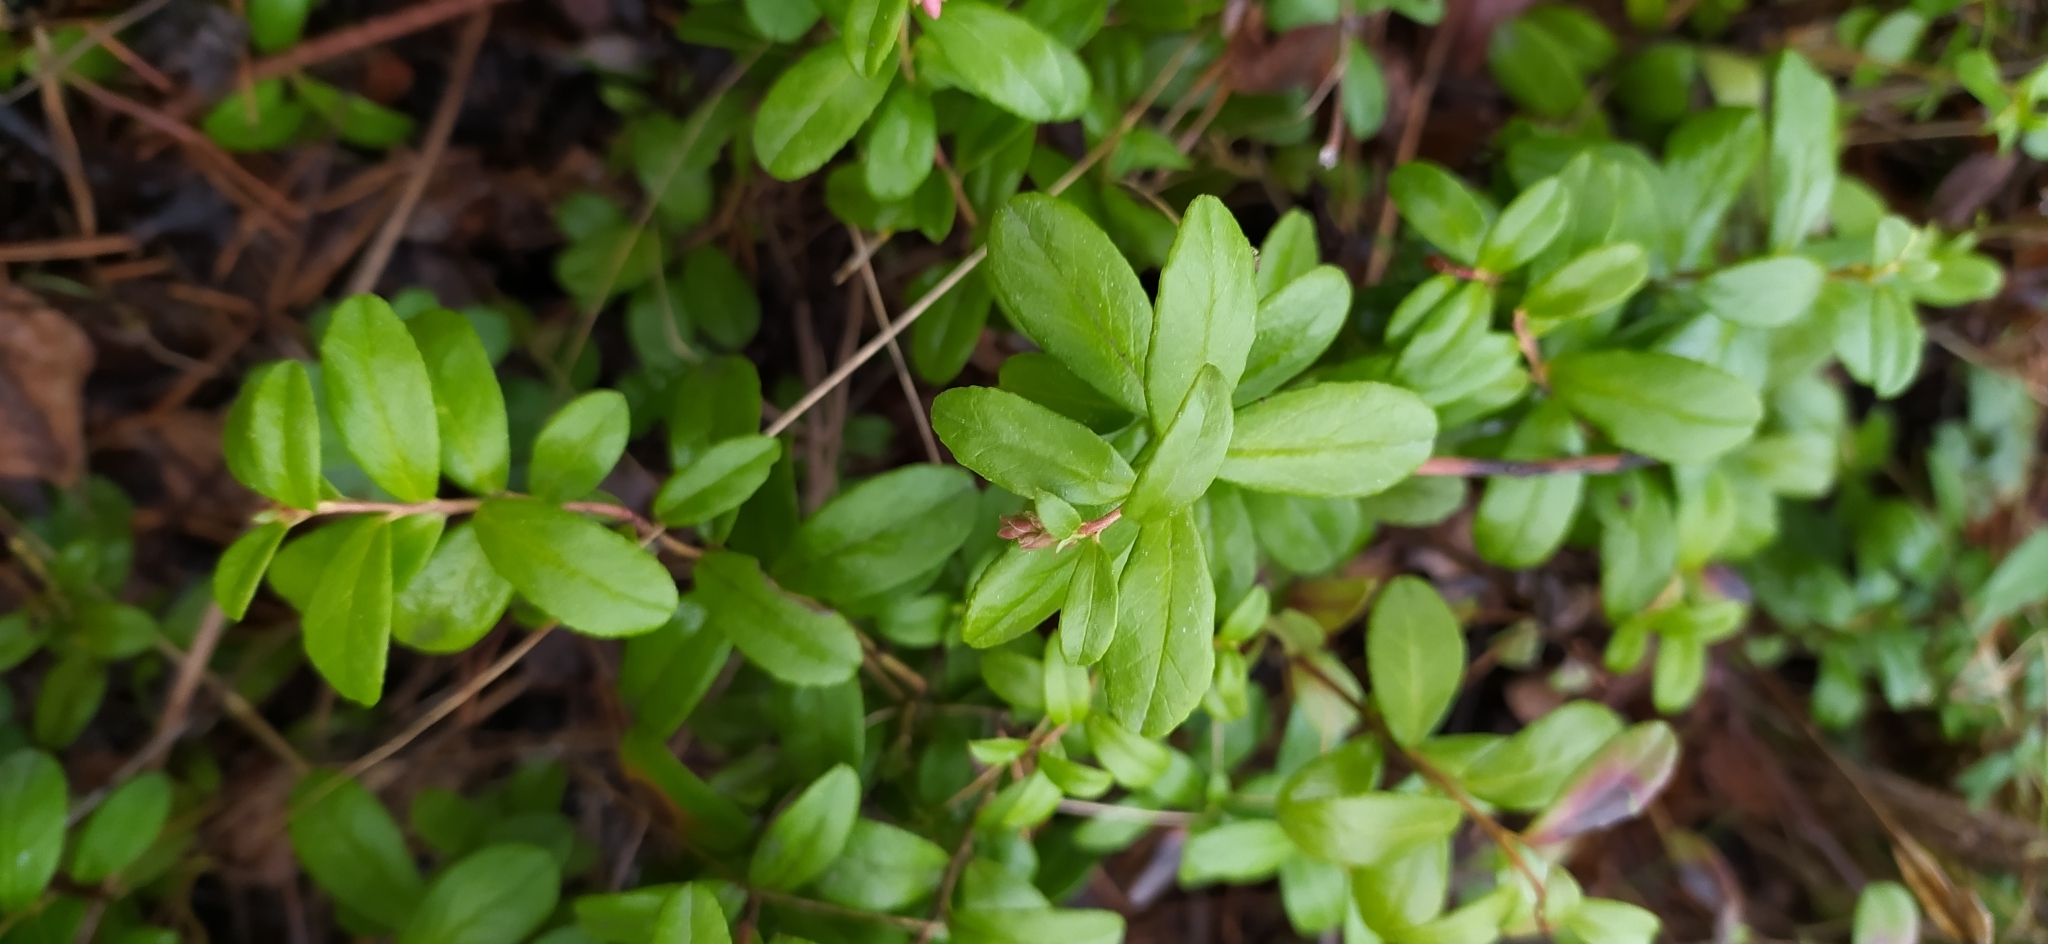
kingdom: Plantae
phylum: Tracheophyta
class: Magnoliopsida
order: Ericales
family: Ericaceae
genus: Vaccinium
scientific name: Vaccinium vitis-idaea
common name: Cowberry
